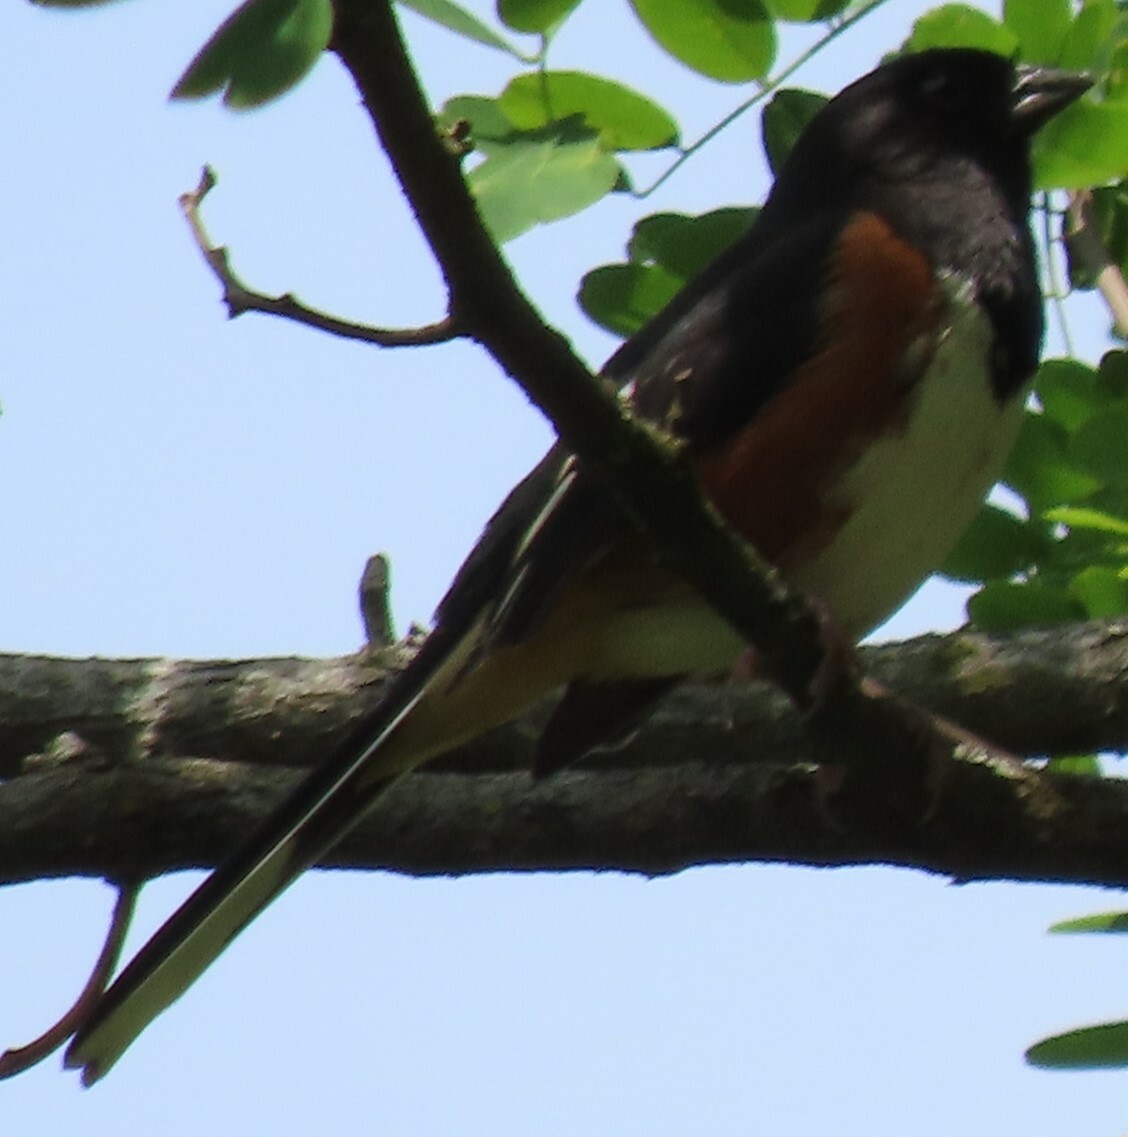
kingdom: Animalia
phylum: Chordata
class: Aves
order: Passeriformes
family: Passerellidae
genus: Pipilo
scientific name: Pipilo erythrophthalmus
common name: Eastern towhee
